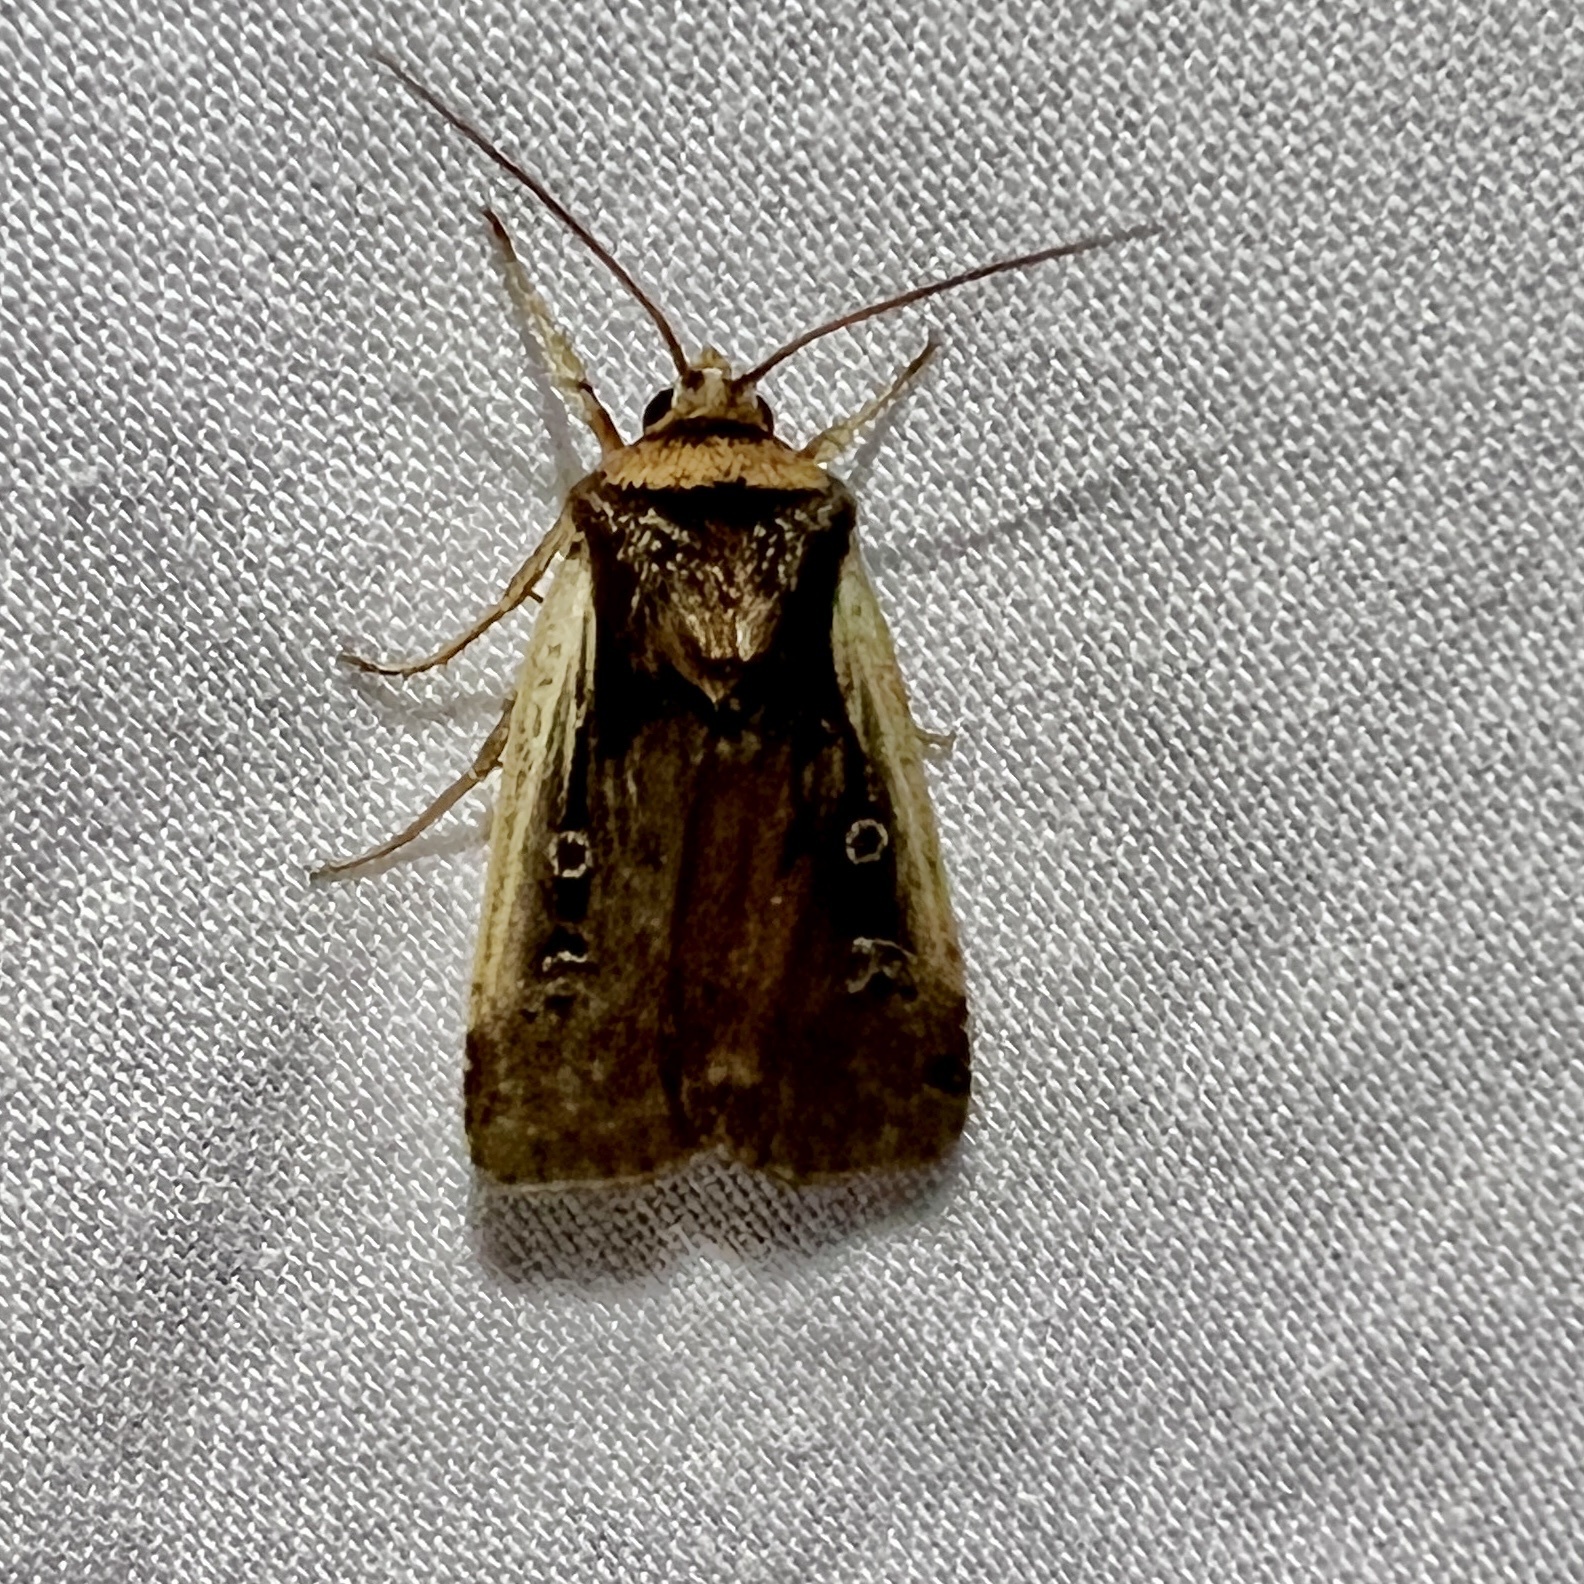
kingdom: Animalia
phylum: Arthropoda
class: Insecta
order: Lepidoptera
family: Noctuidae
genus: Ochropleura
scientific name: Ochropleura implecta
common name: Flame-shouldered dart
